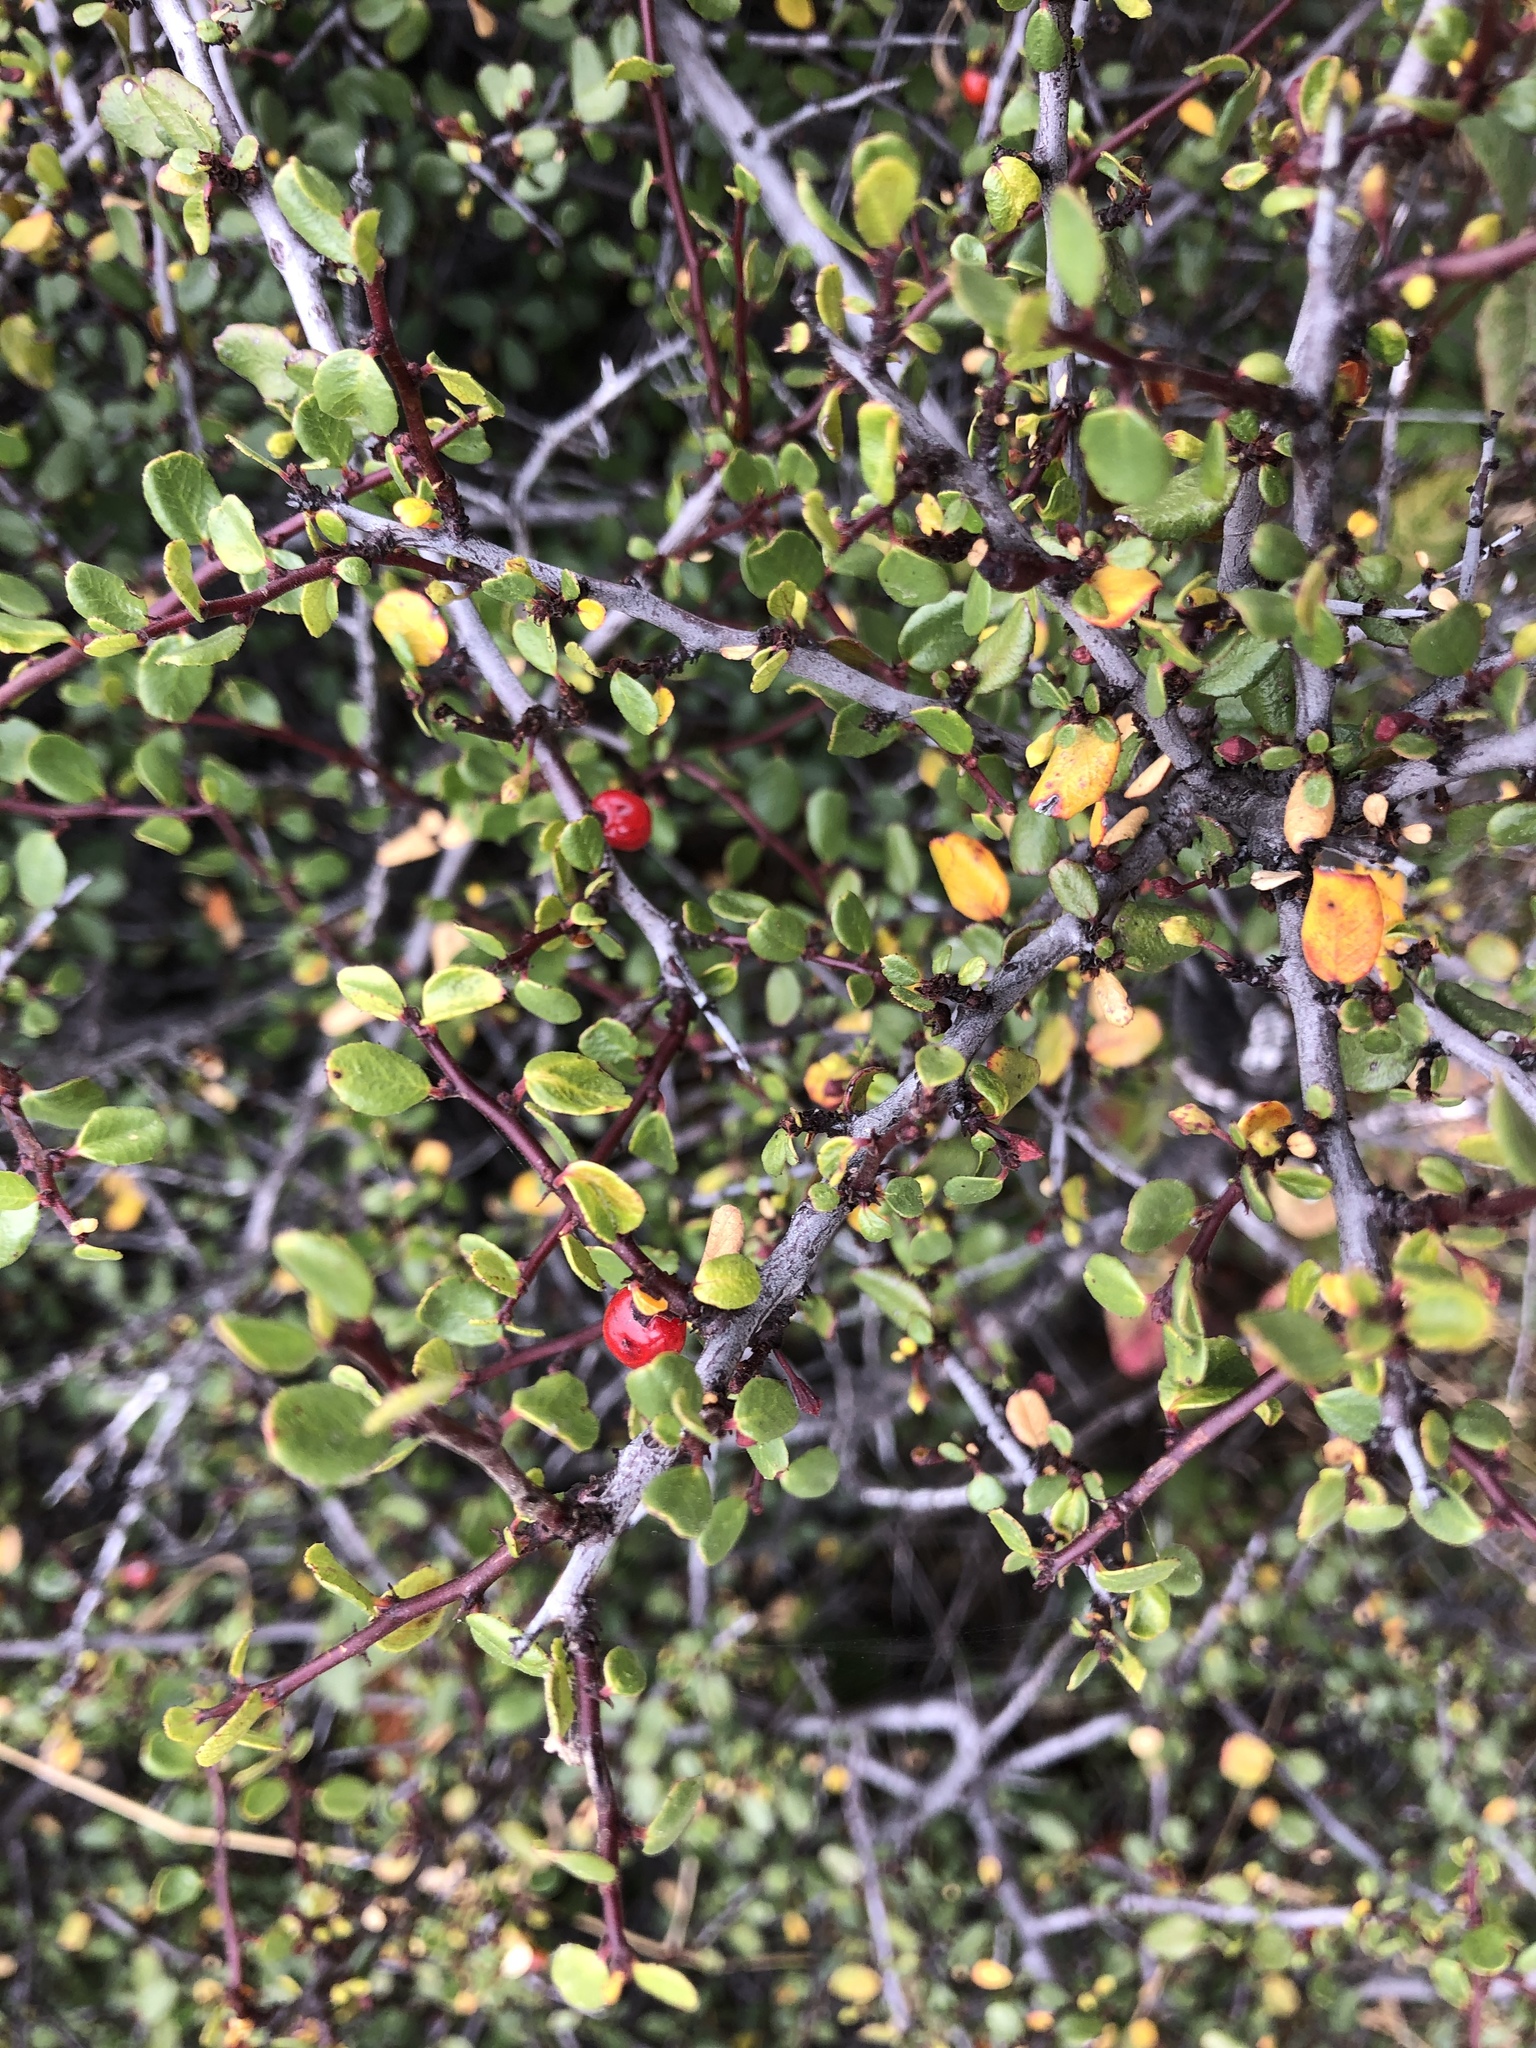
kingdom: Plantae
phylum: Tracheophyta
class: Magnoliopsida
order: Rosales
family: Rhamnaceae
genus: Endotropis
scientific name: Endotropis crocea
